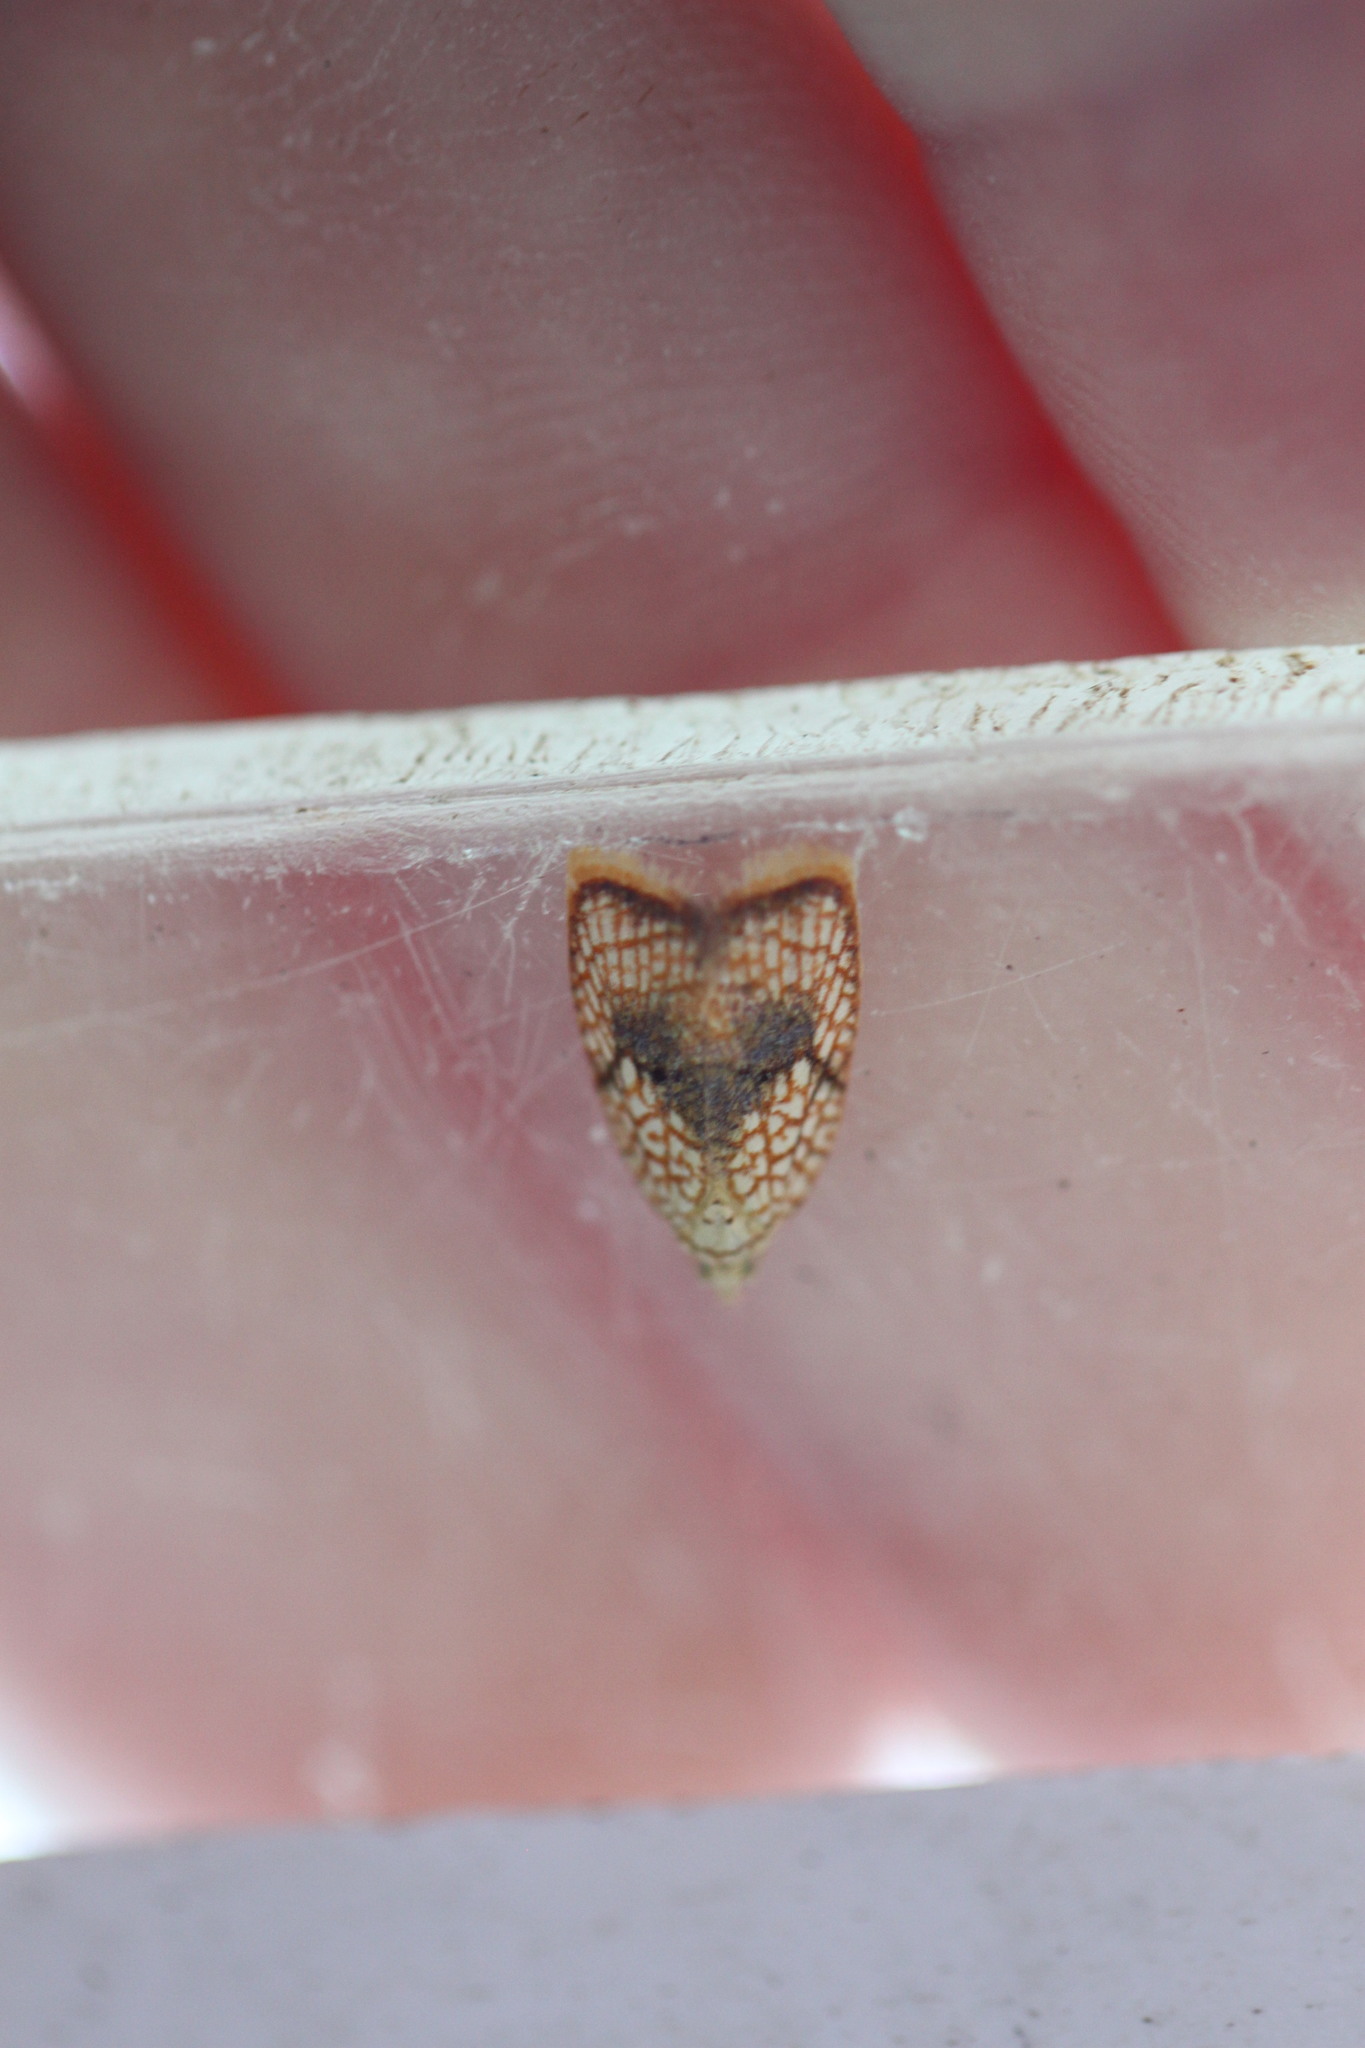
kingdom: Animalia
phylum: Arthropoda
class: Insecta
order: Lepidoptera
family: Tortricidae
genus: Acleris
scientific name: Acleris forsskaleana
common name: Maple button
